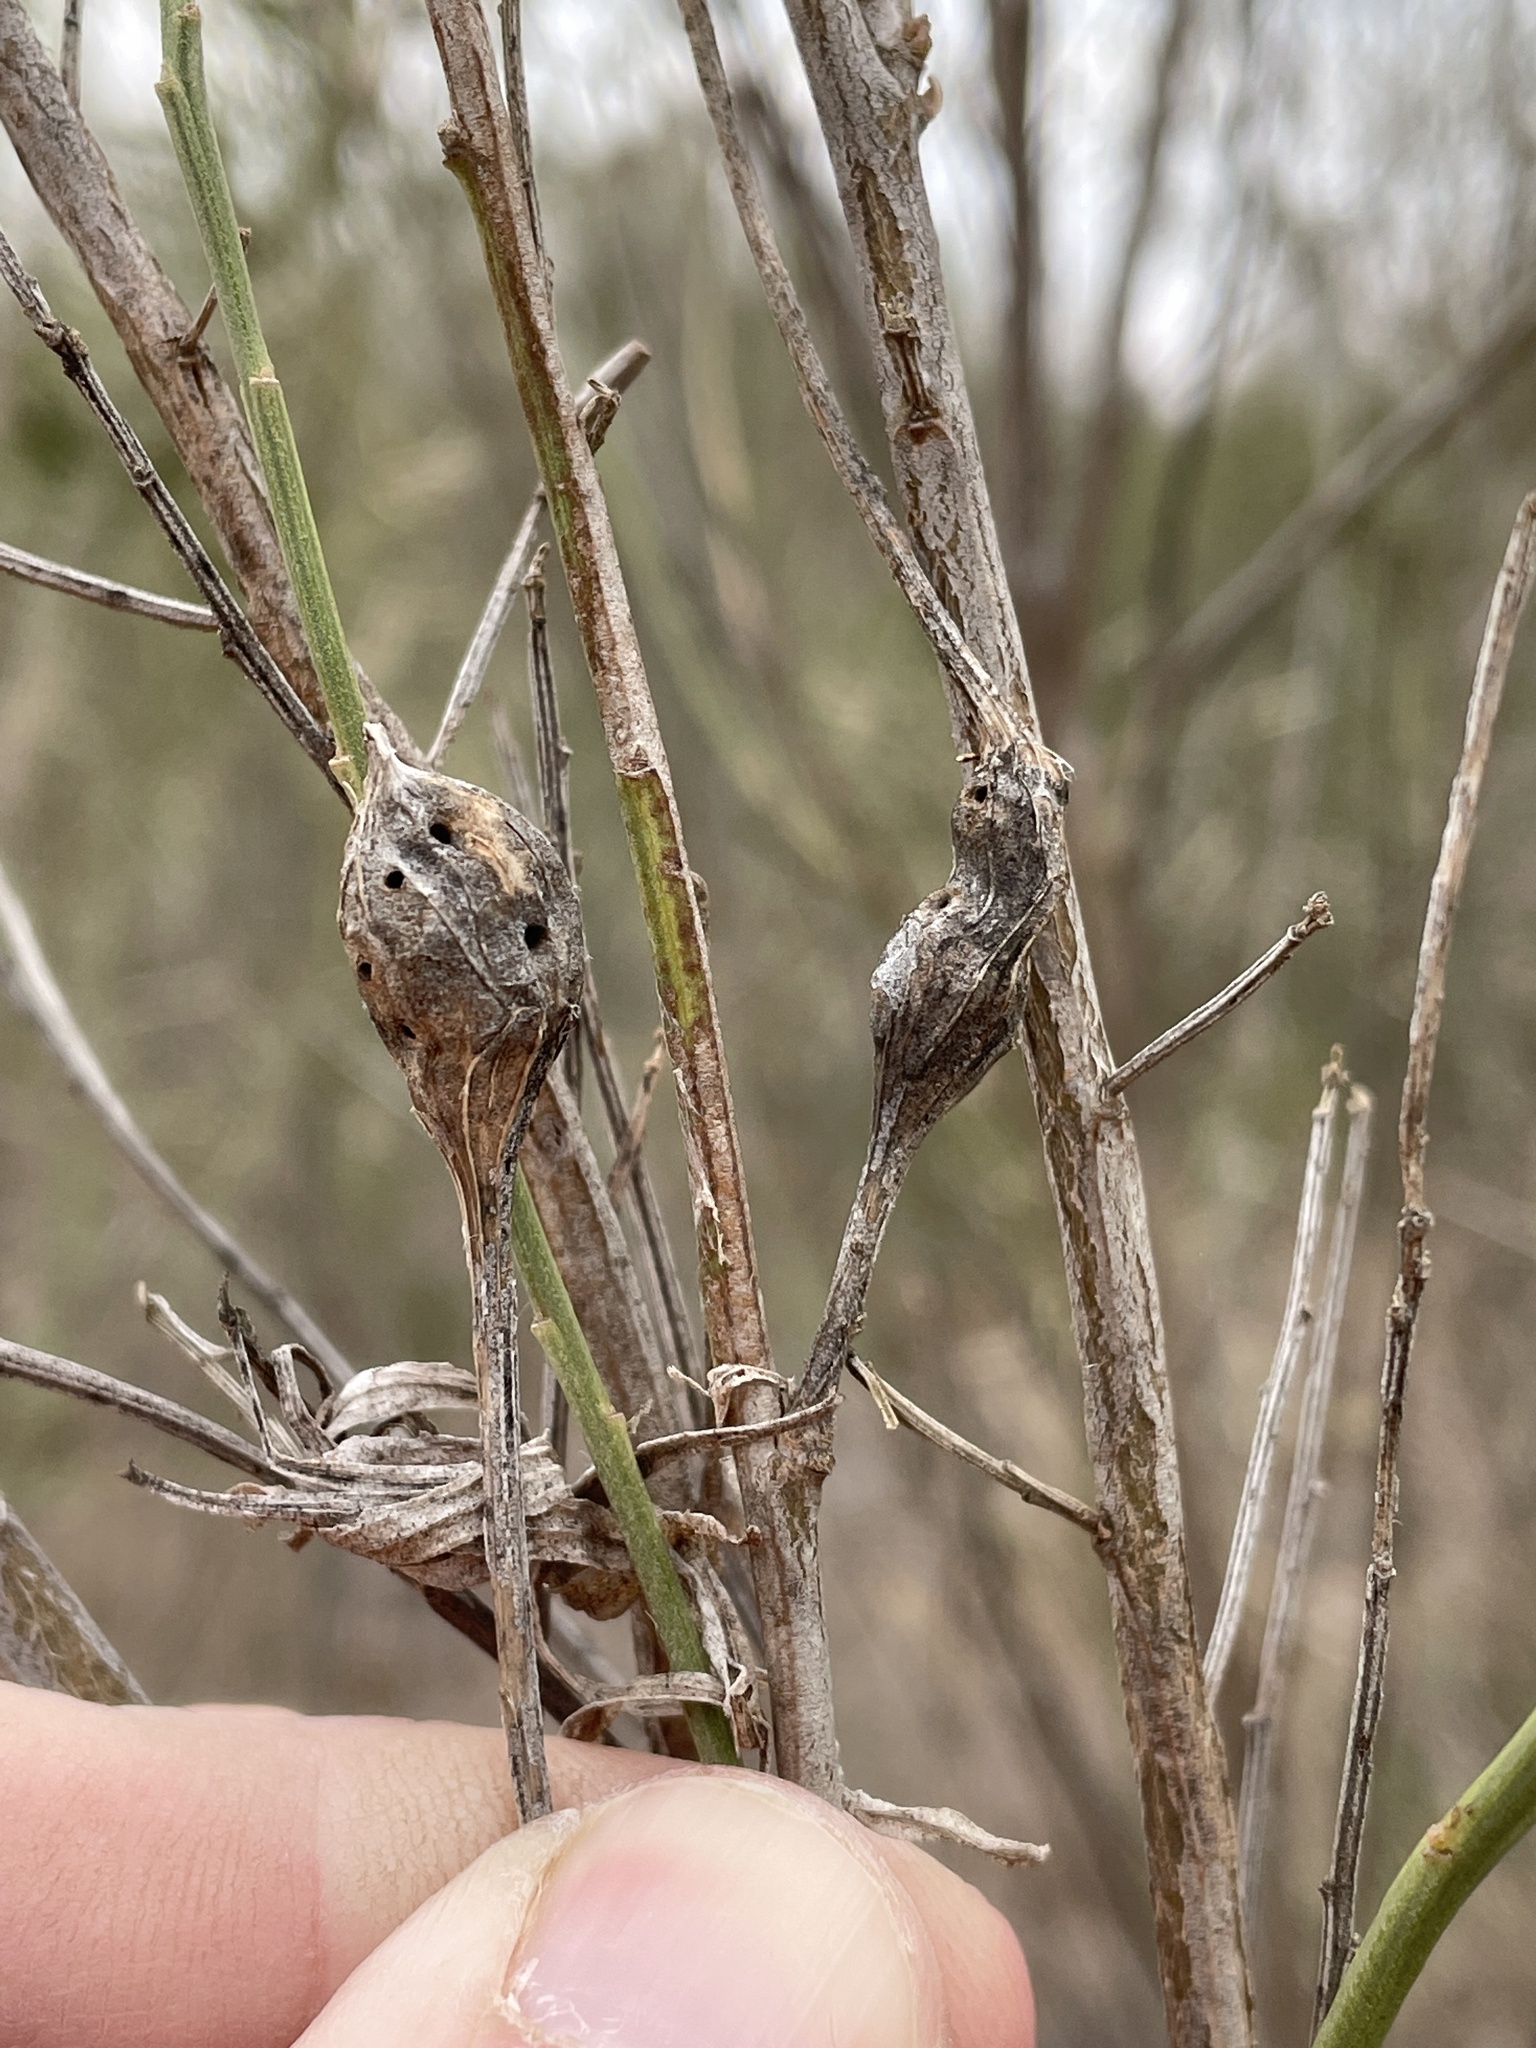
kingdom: Animalia
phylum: Arthropoda
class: Insecta
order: Diptera
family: Cecidomyiidae
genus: Neolasioptera
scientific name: Neolasioptera lathami
